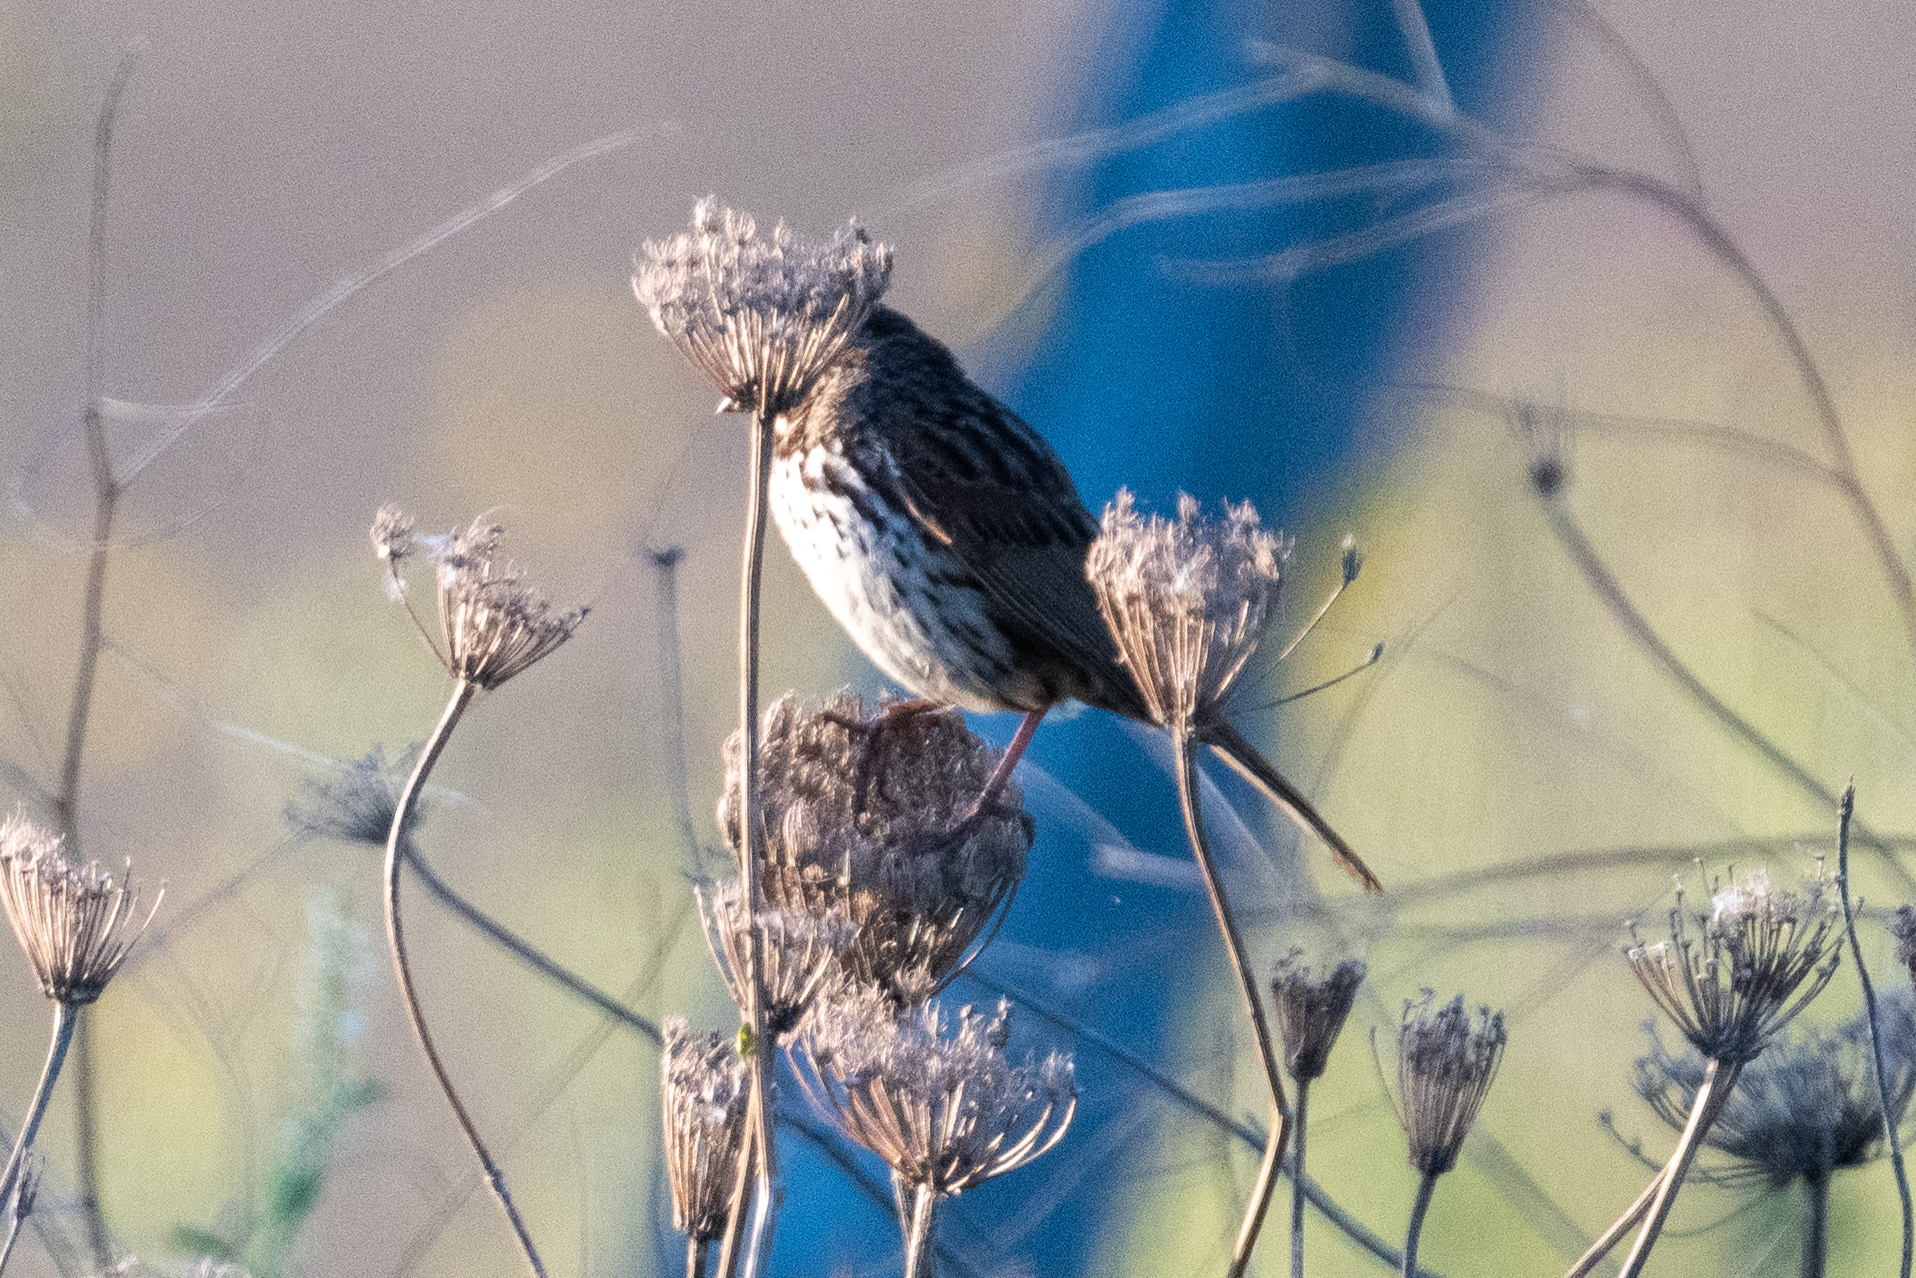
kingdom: Animalia
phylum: Chordata
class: Aves
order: Passeriformes
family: Passerellidae
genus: Melospiza
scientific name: Melospiza melodia
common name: Song sparrow
